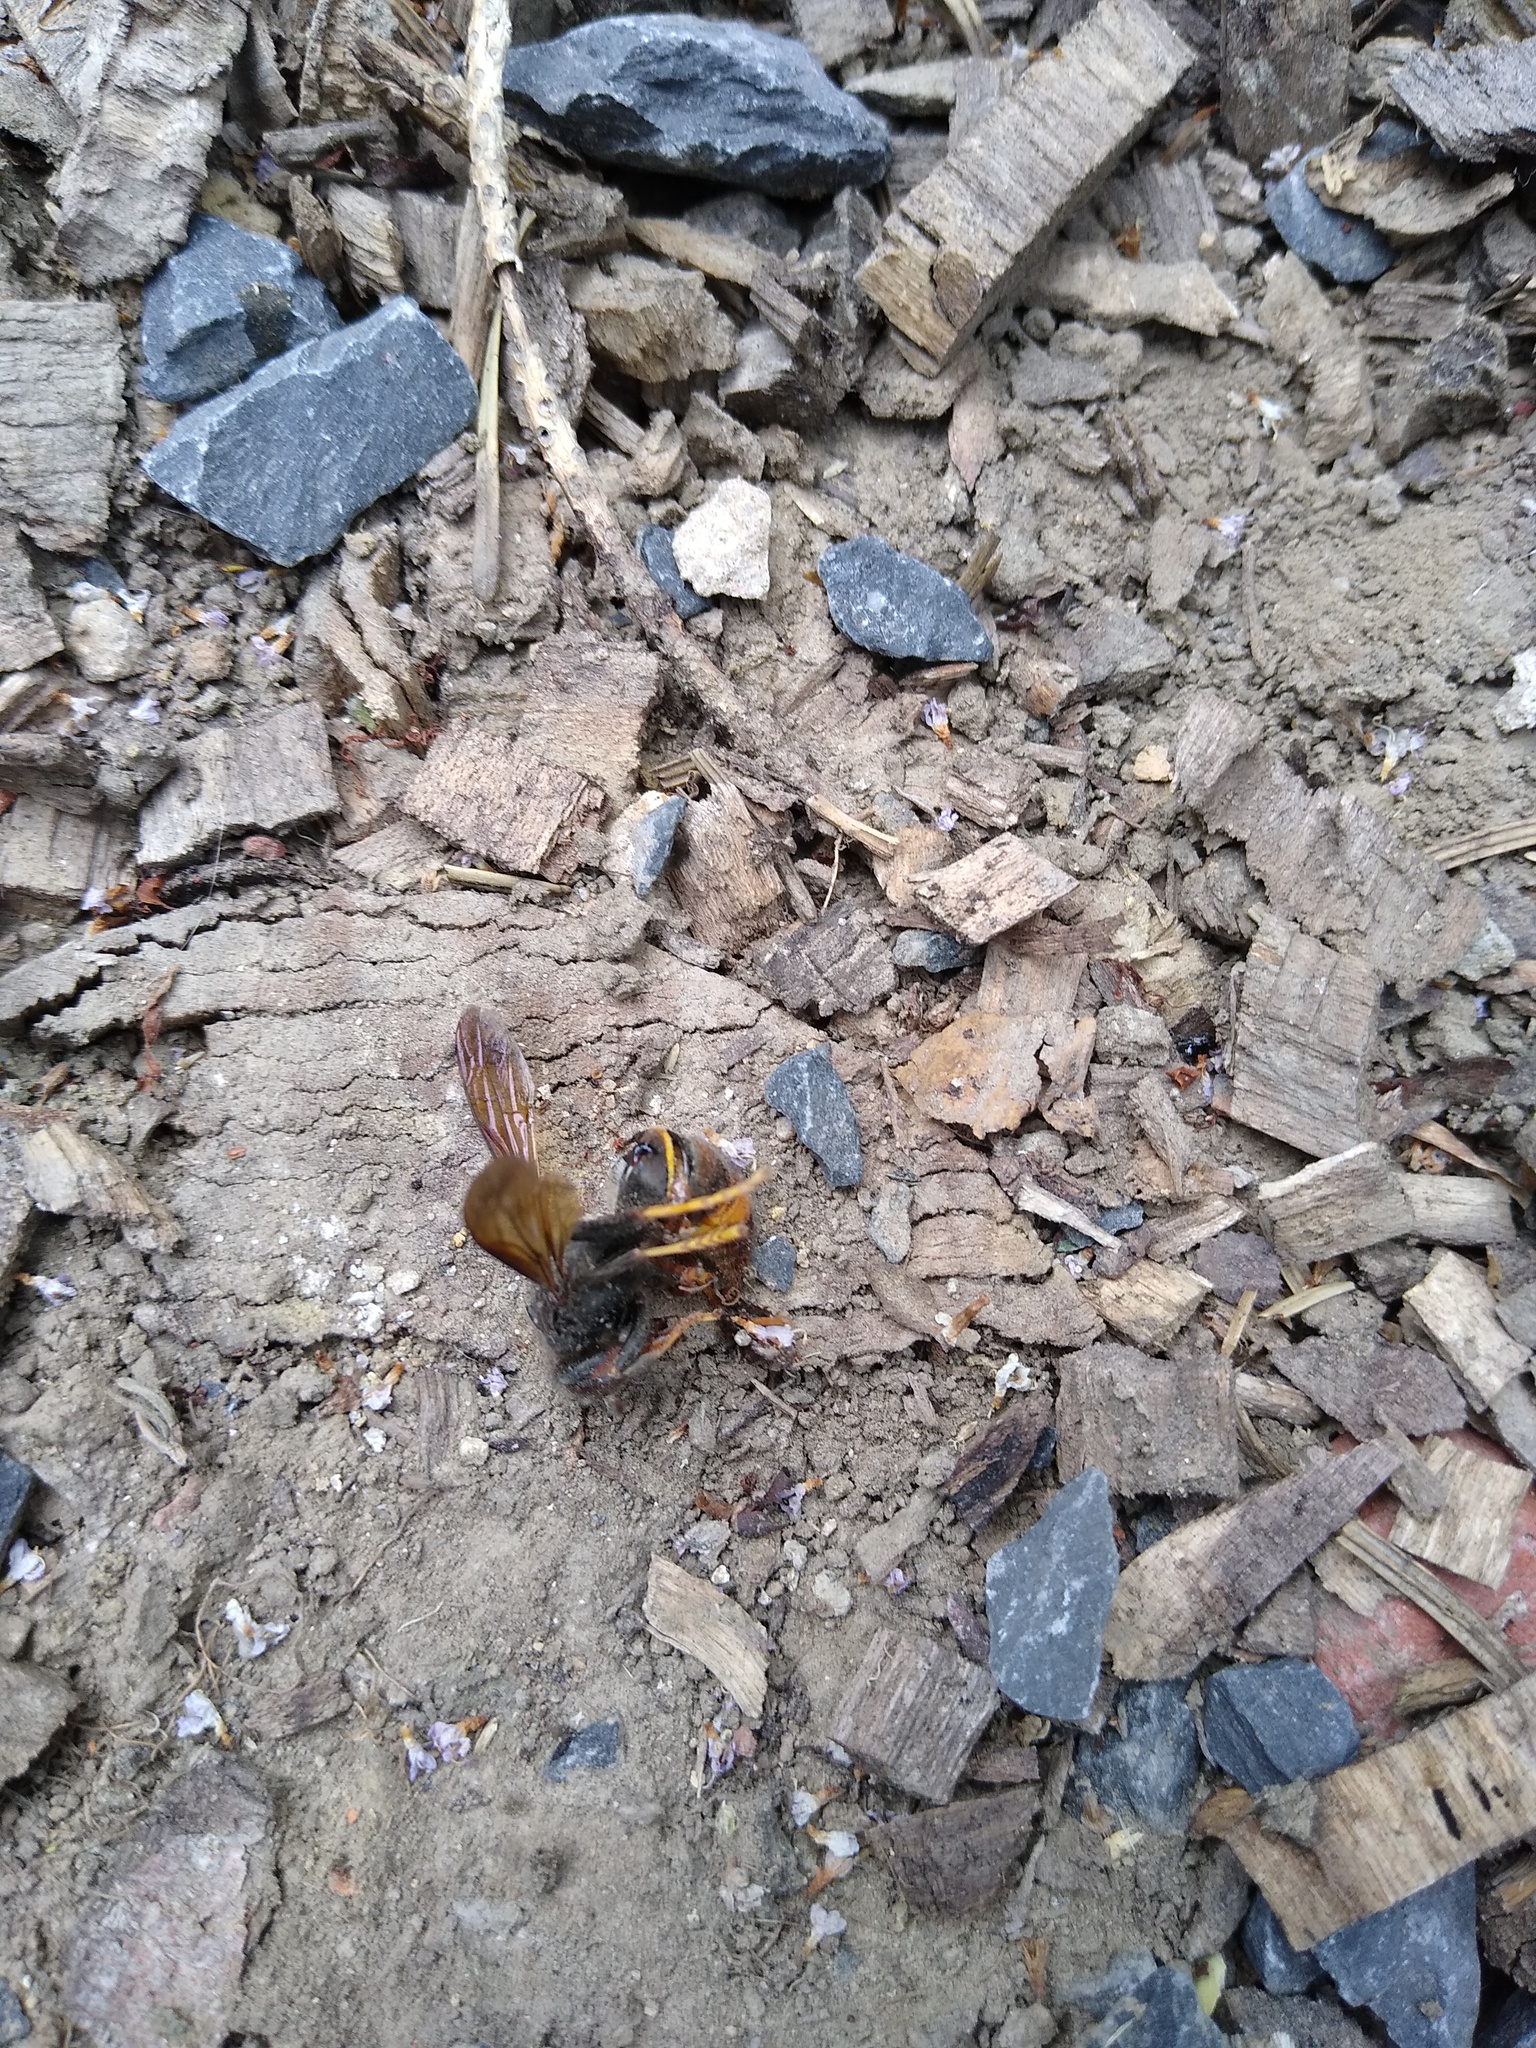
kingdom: Animalia
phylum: Arthropoda
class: Insecta
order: Hymenoptera
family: Vespidae
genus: Vespa
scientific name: Vespa velutina
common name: Asian hornet
